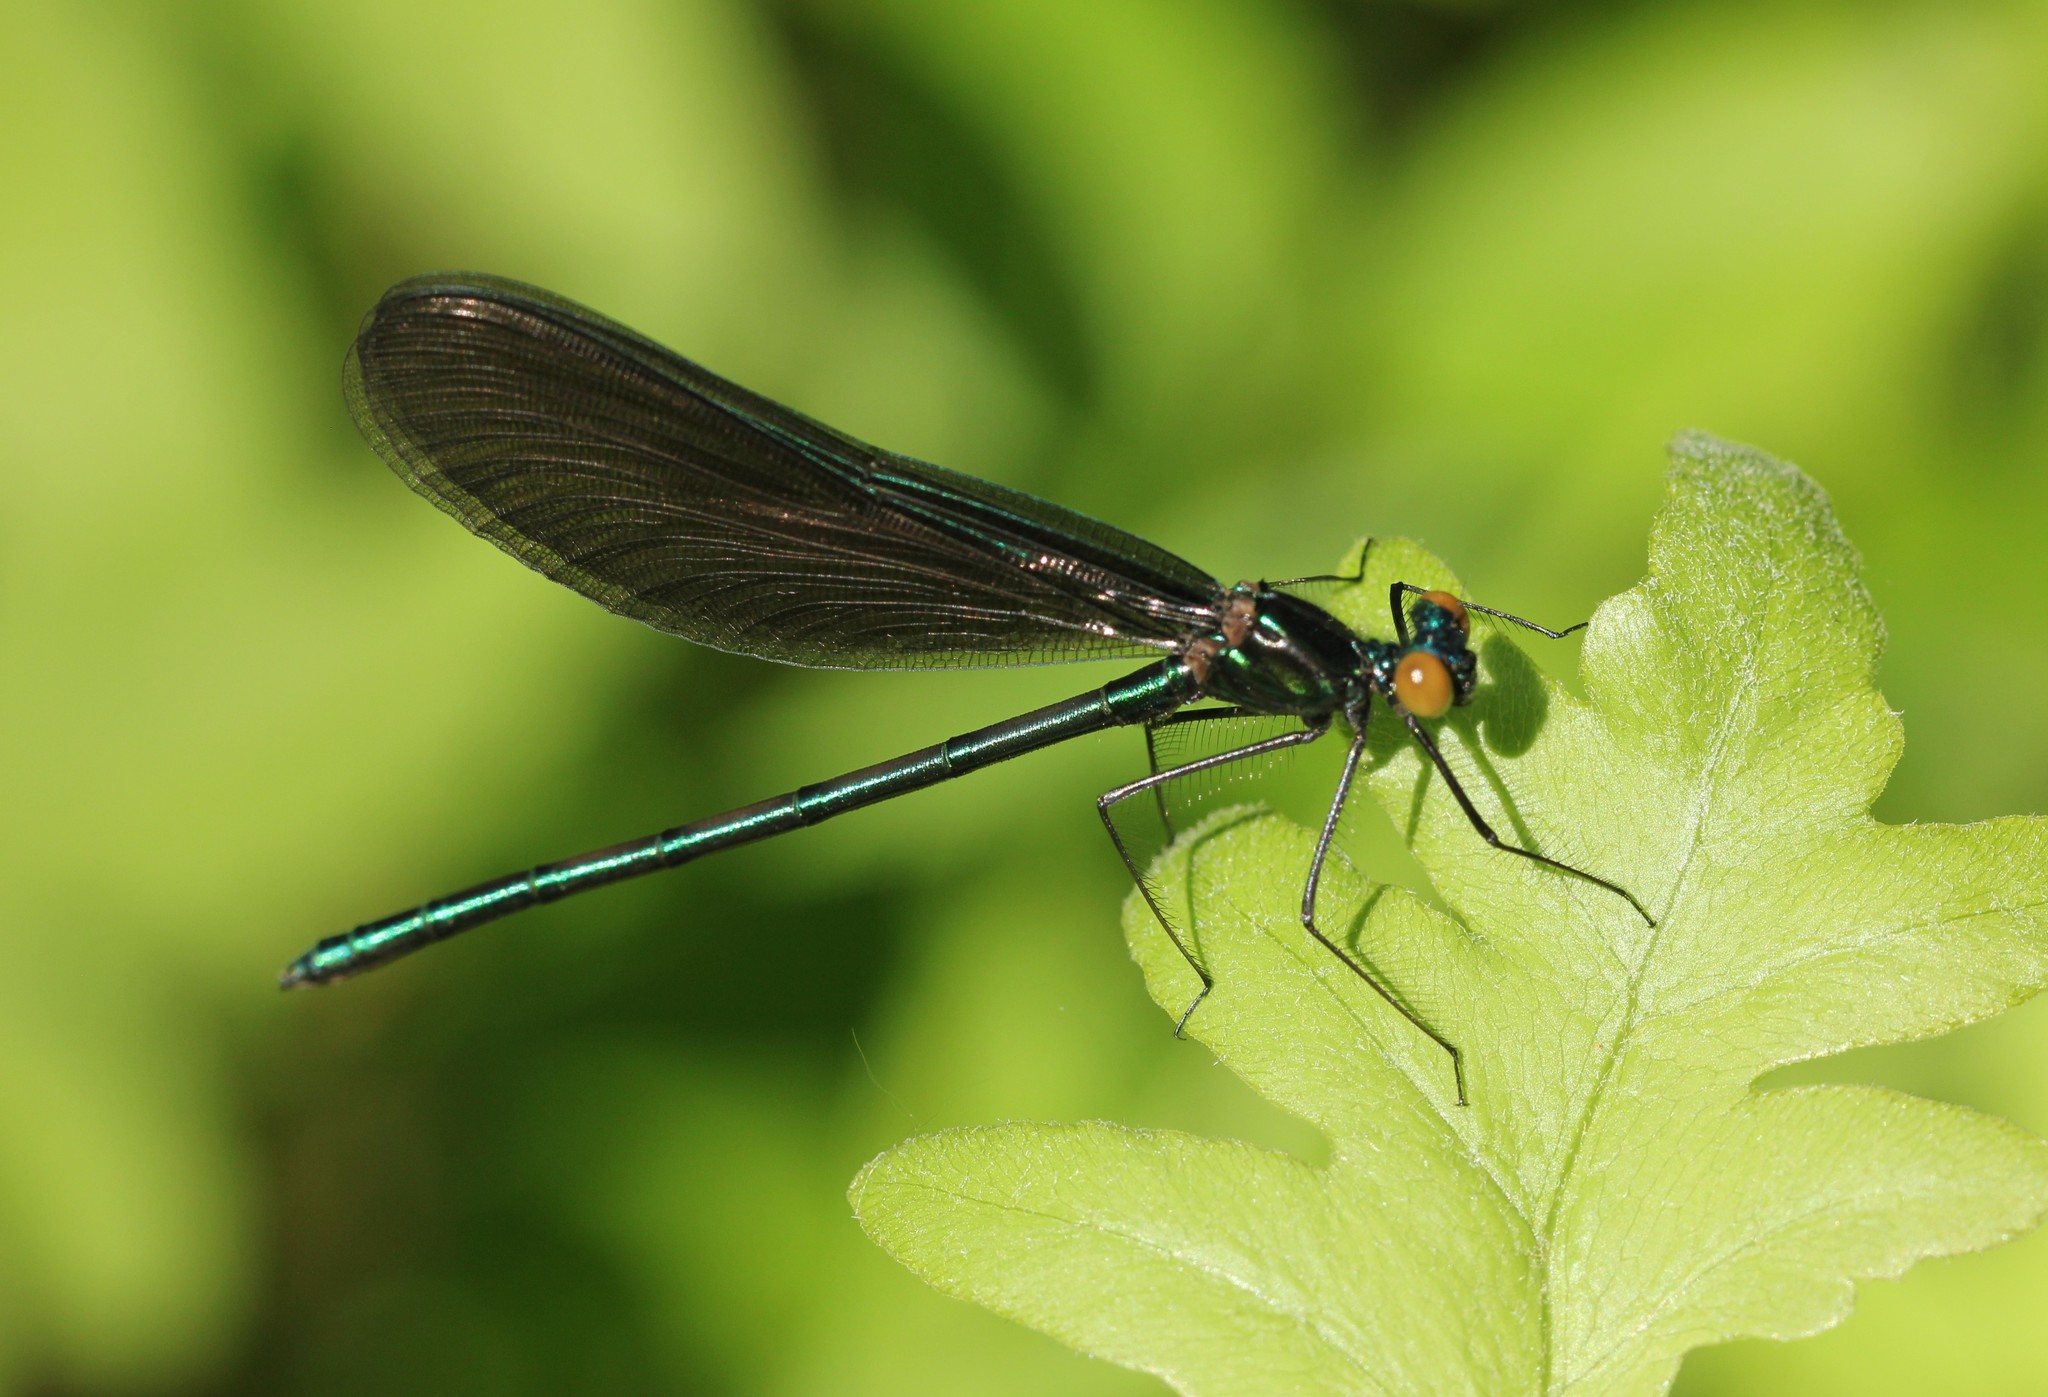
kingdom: Animalia
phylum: Arthropoda
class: Insecta
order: Odonata
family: Calopterygidae
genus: Calopteryx
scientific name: Calopteryx maculata
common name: Ebony jewelwing
